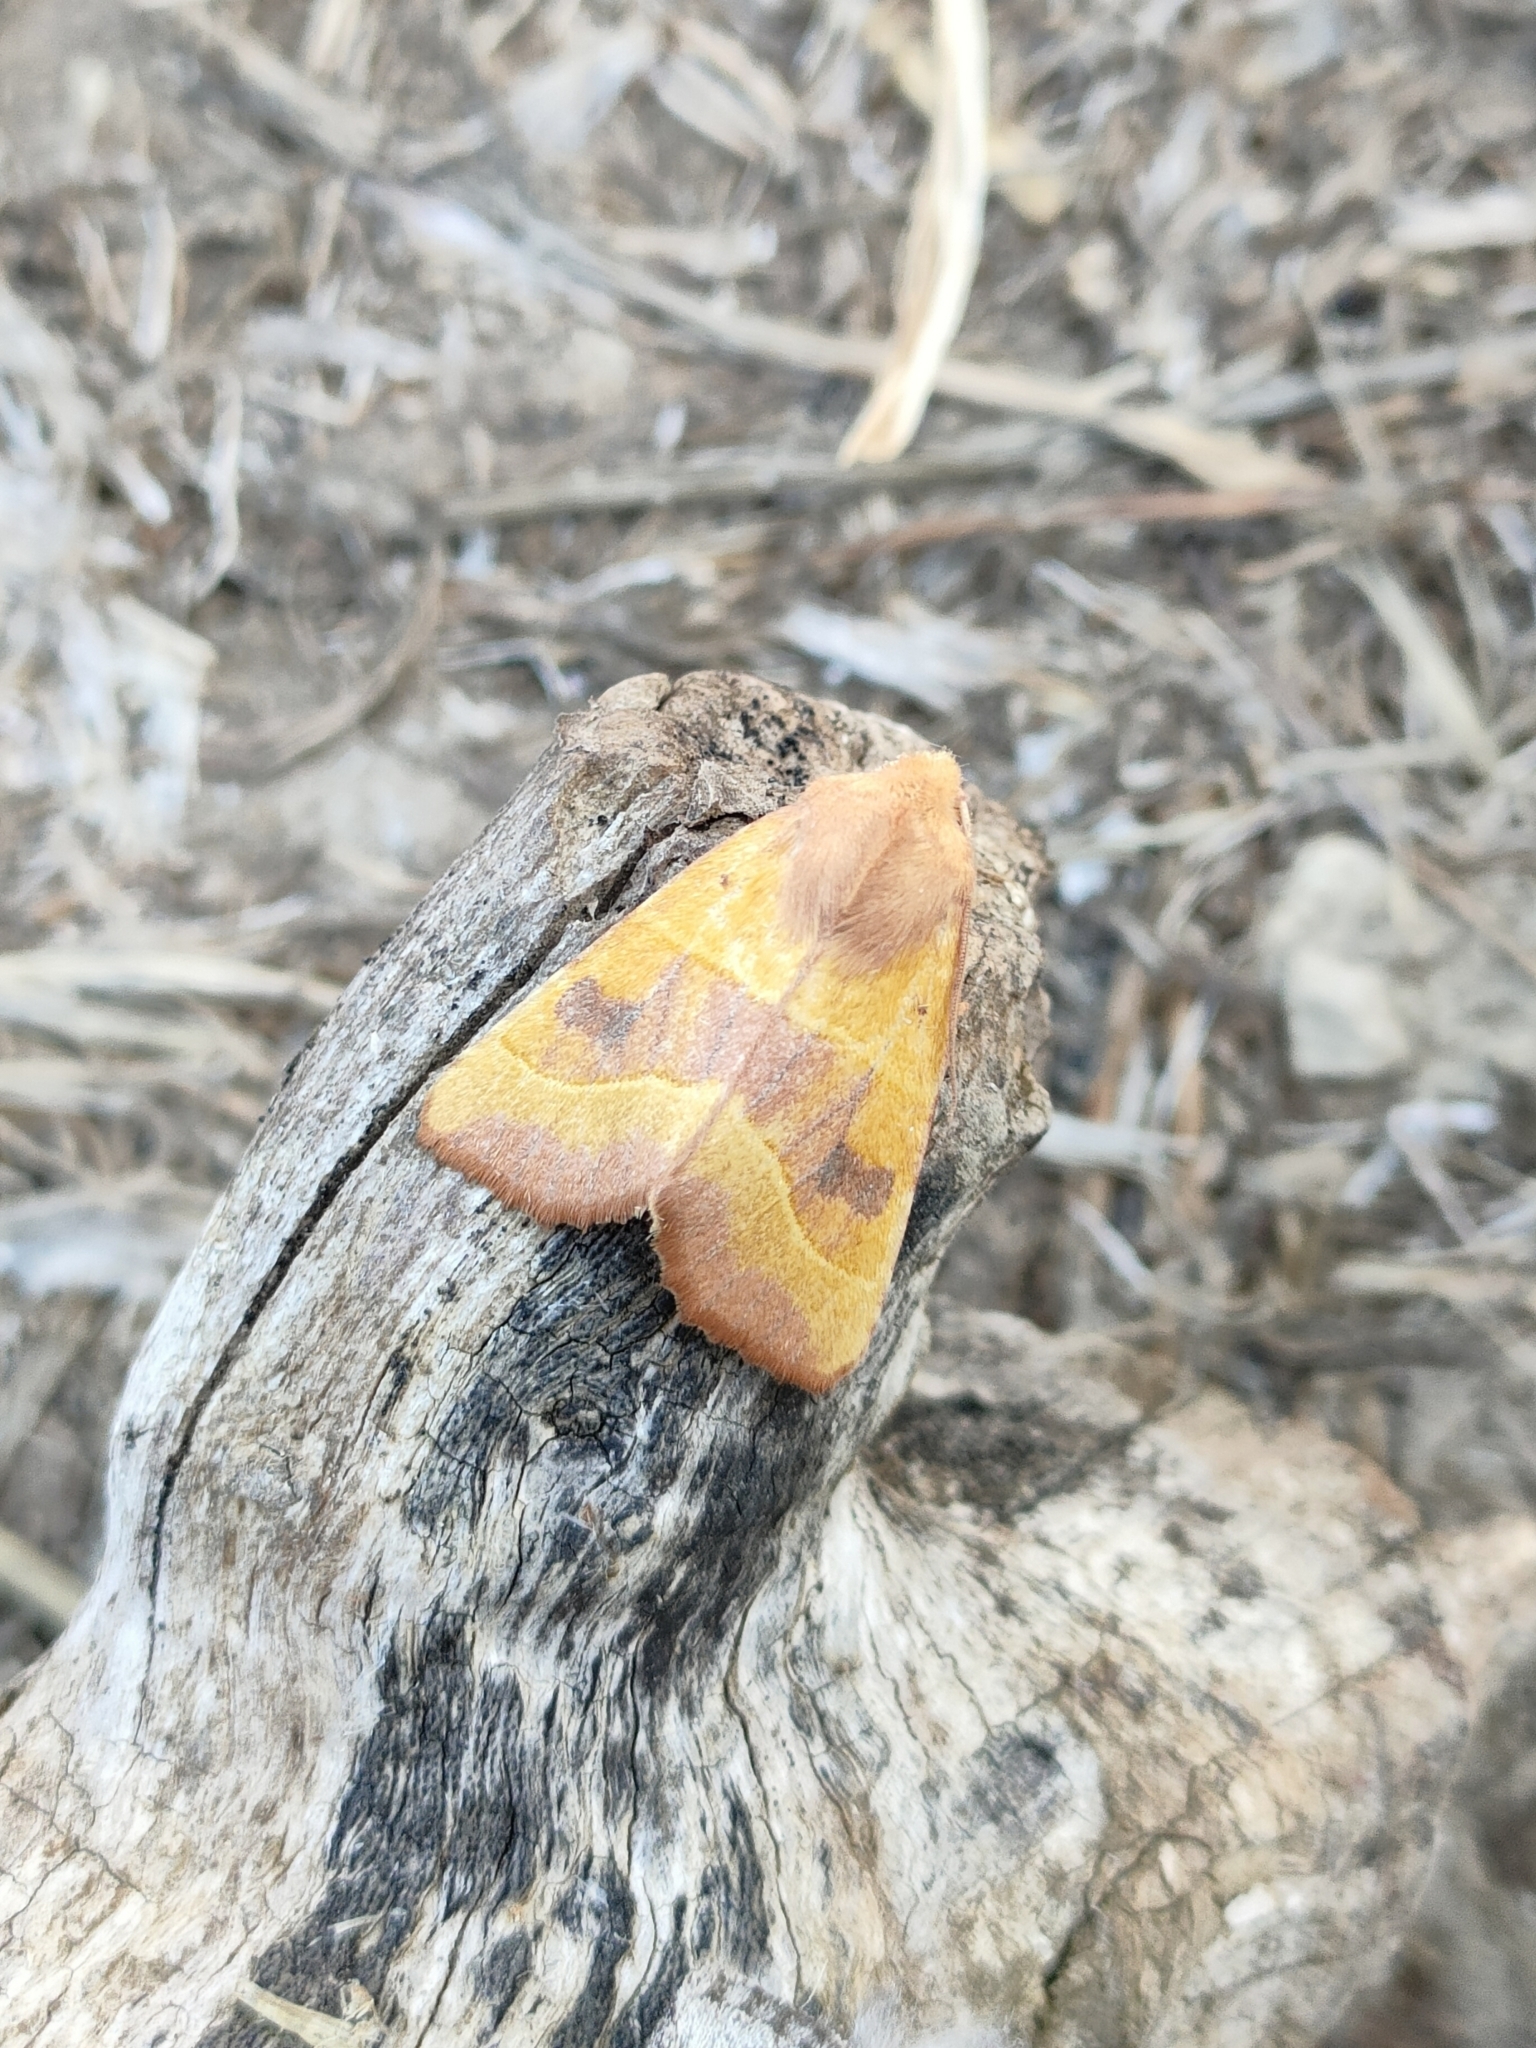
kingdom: Animalia
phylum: Arthropoda
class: Insecta
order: Lepidoptera
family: Noctuidae
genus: Atethmia
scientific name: Atethmia centrago
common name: Centre-barred sallow
